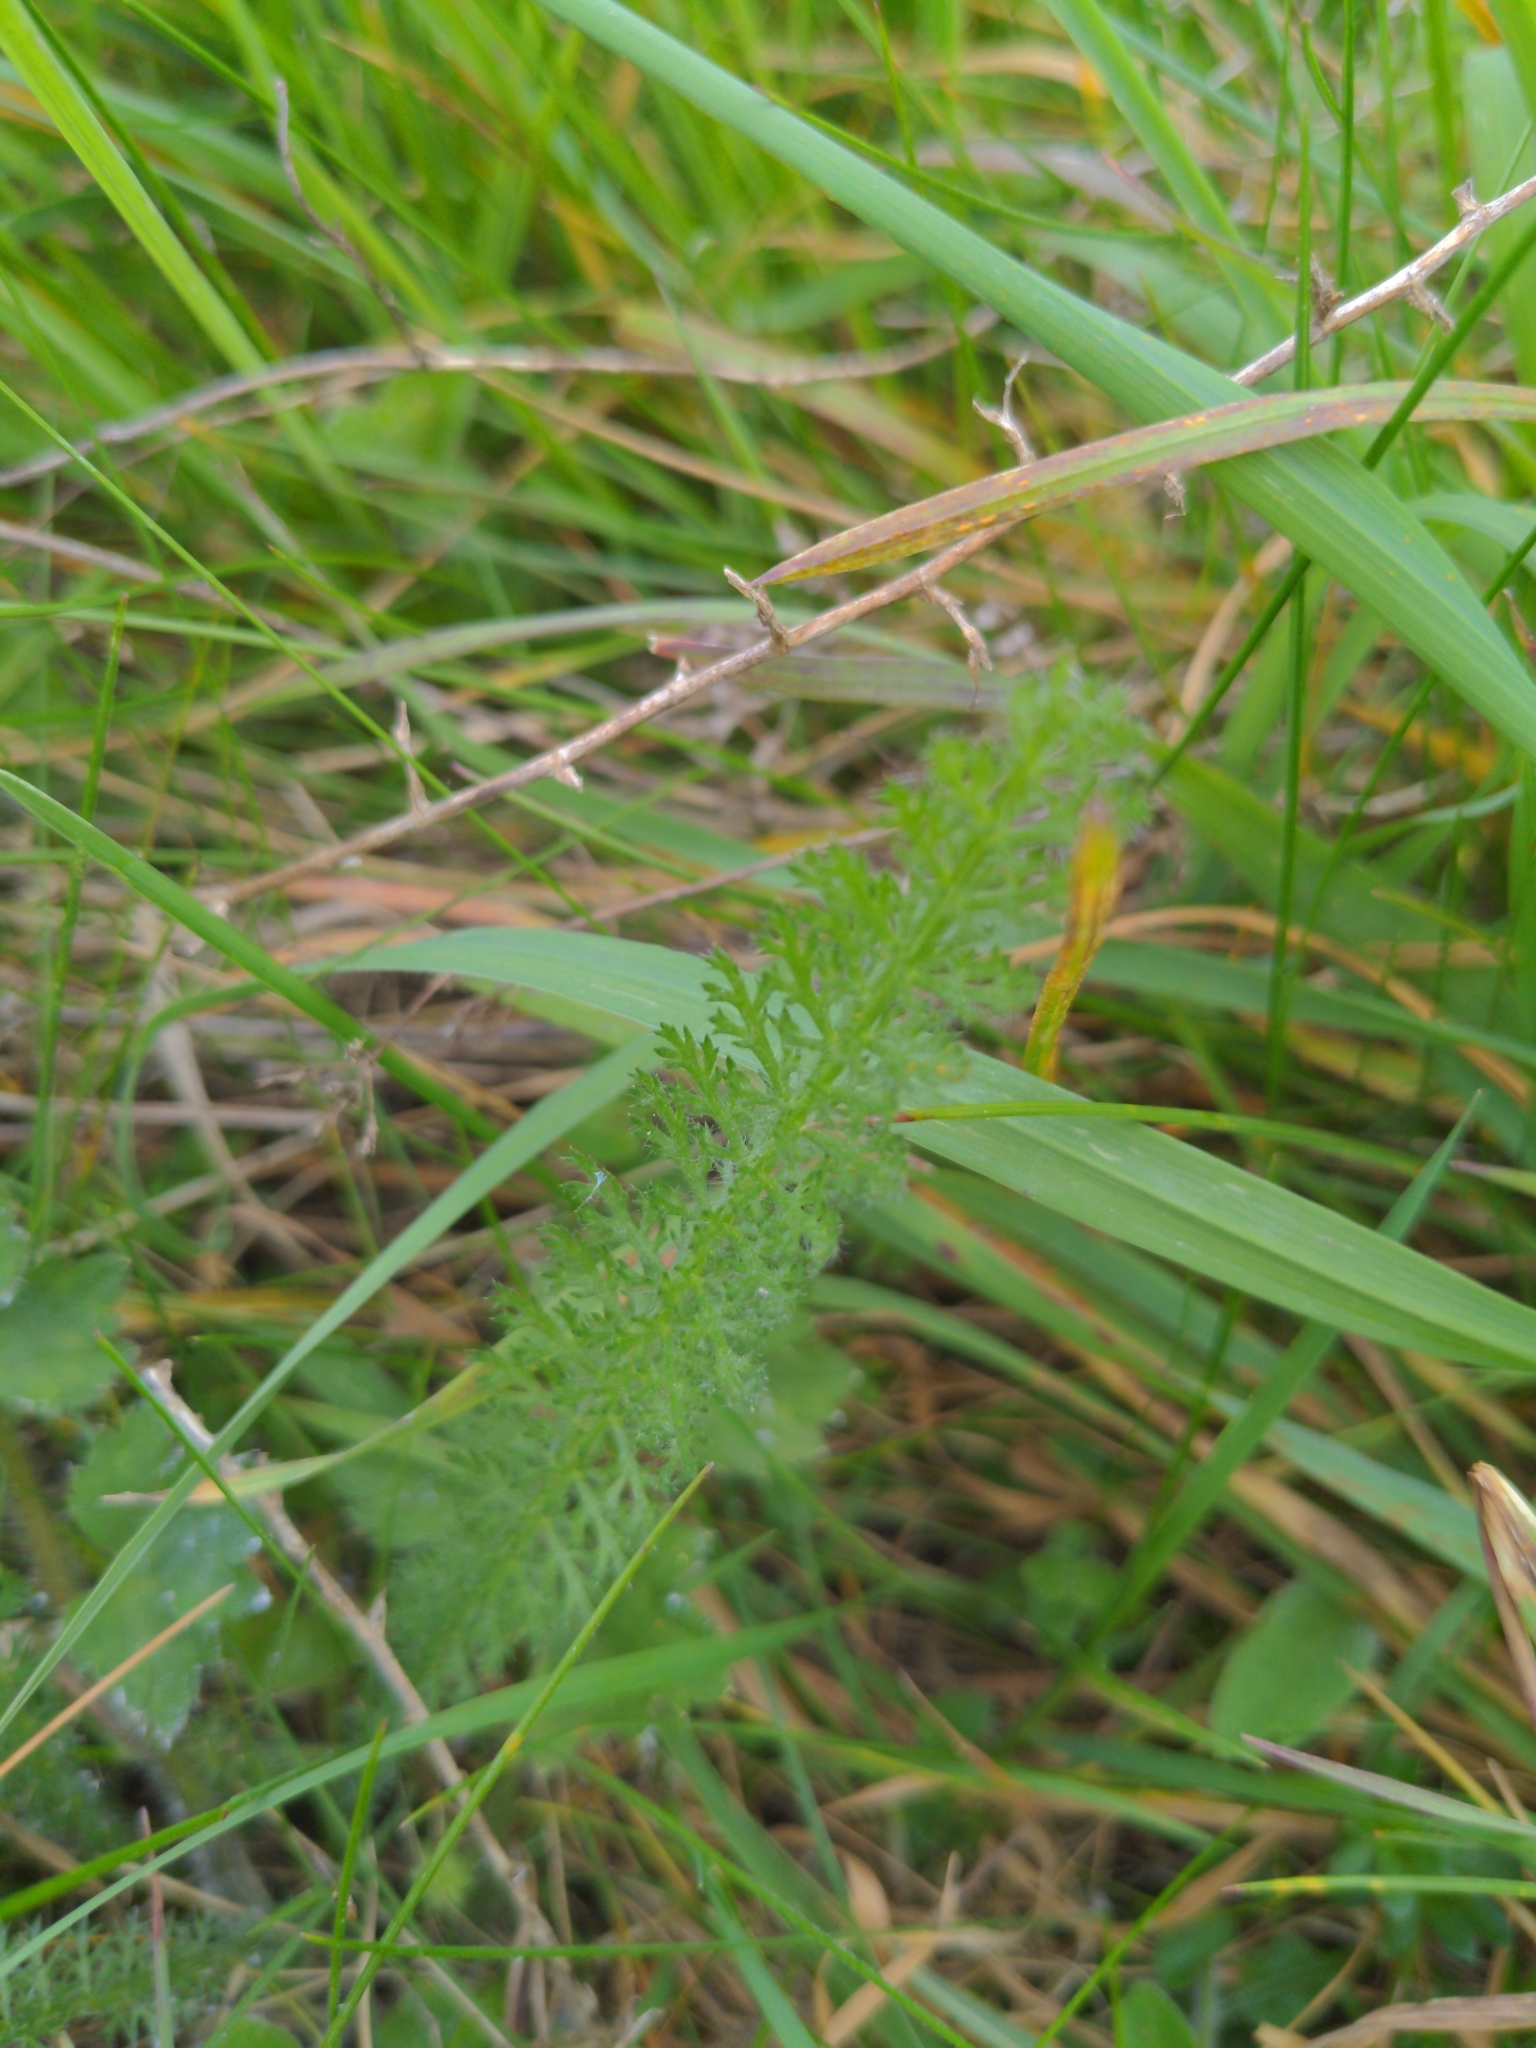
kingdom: Plantae
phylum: Tracheophyta
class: Magnoliopsida
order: Asterales
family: Asteraceae
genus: Achillea
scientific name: Achillea millefolium
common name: Yarrow
